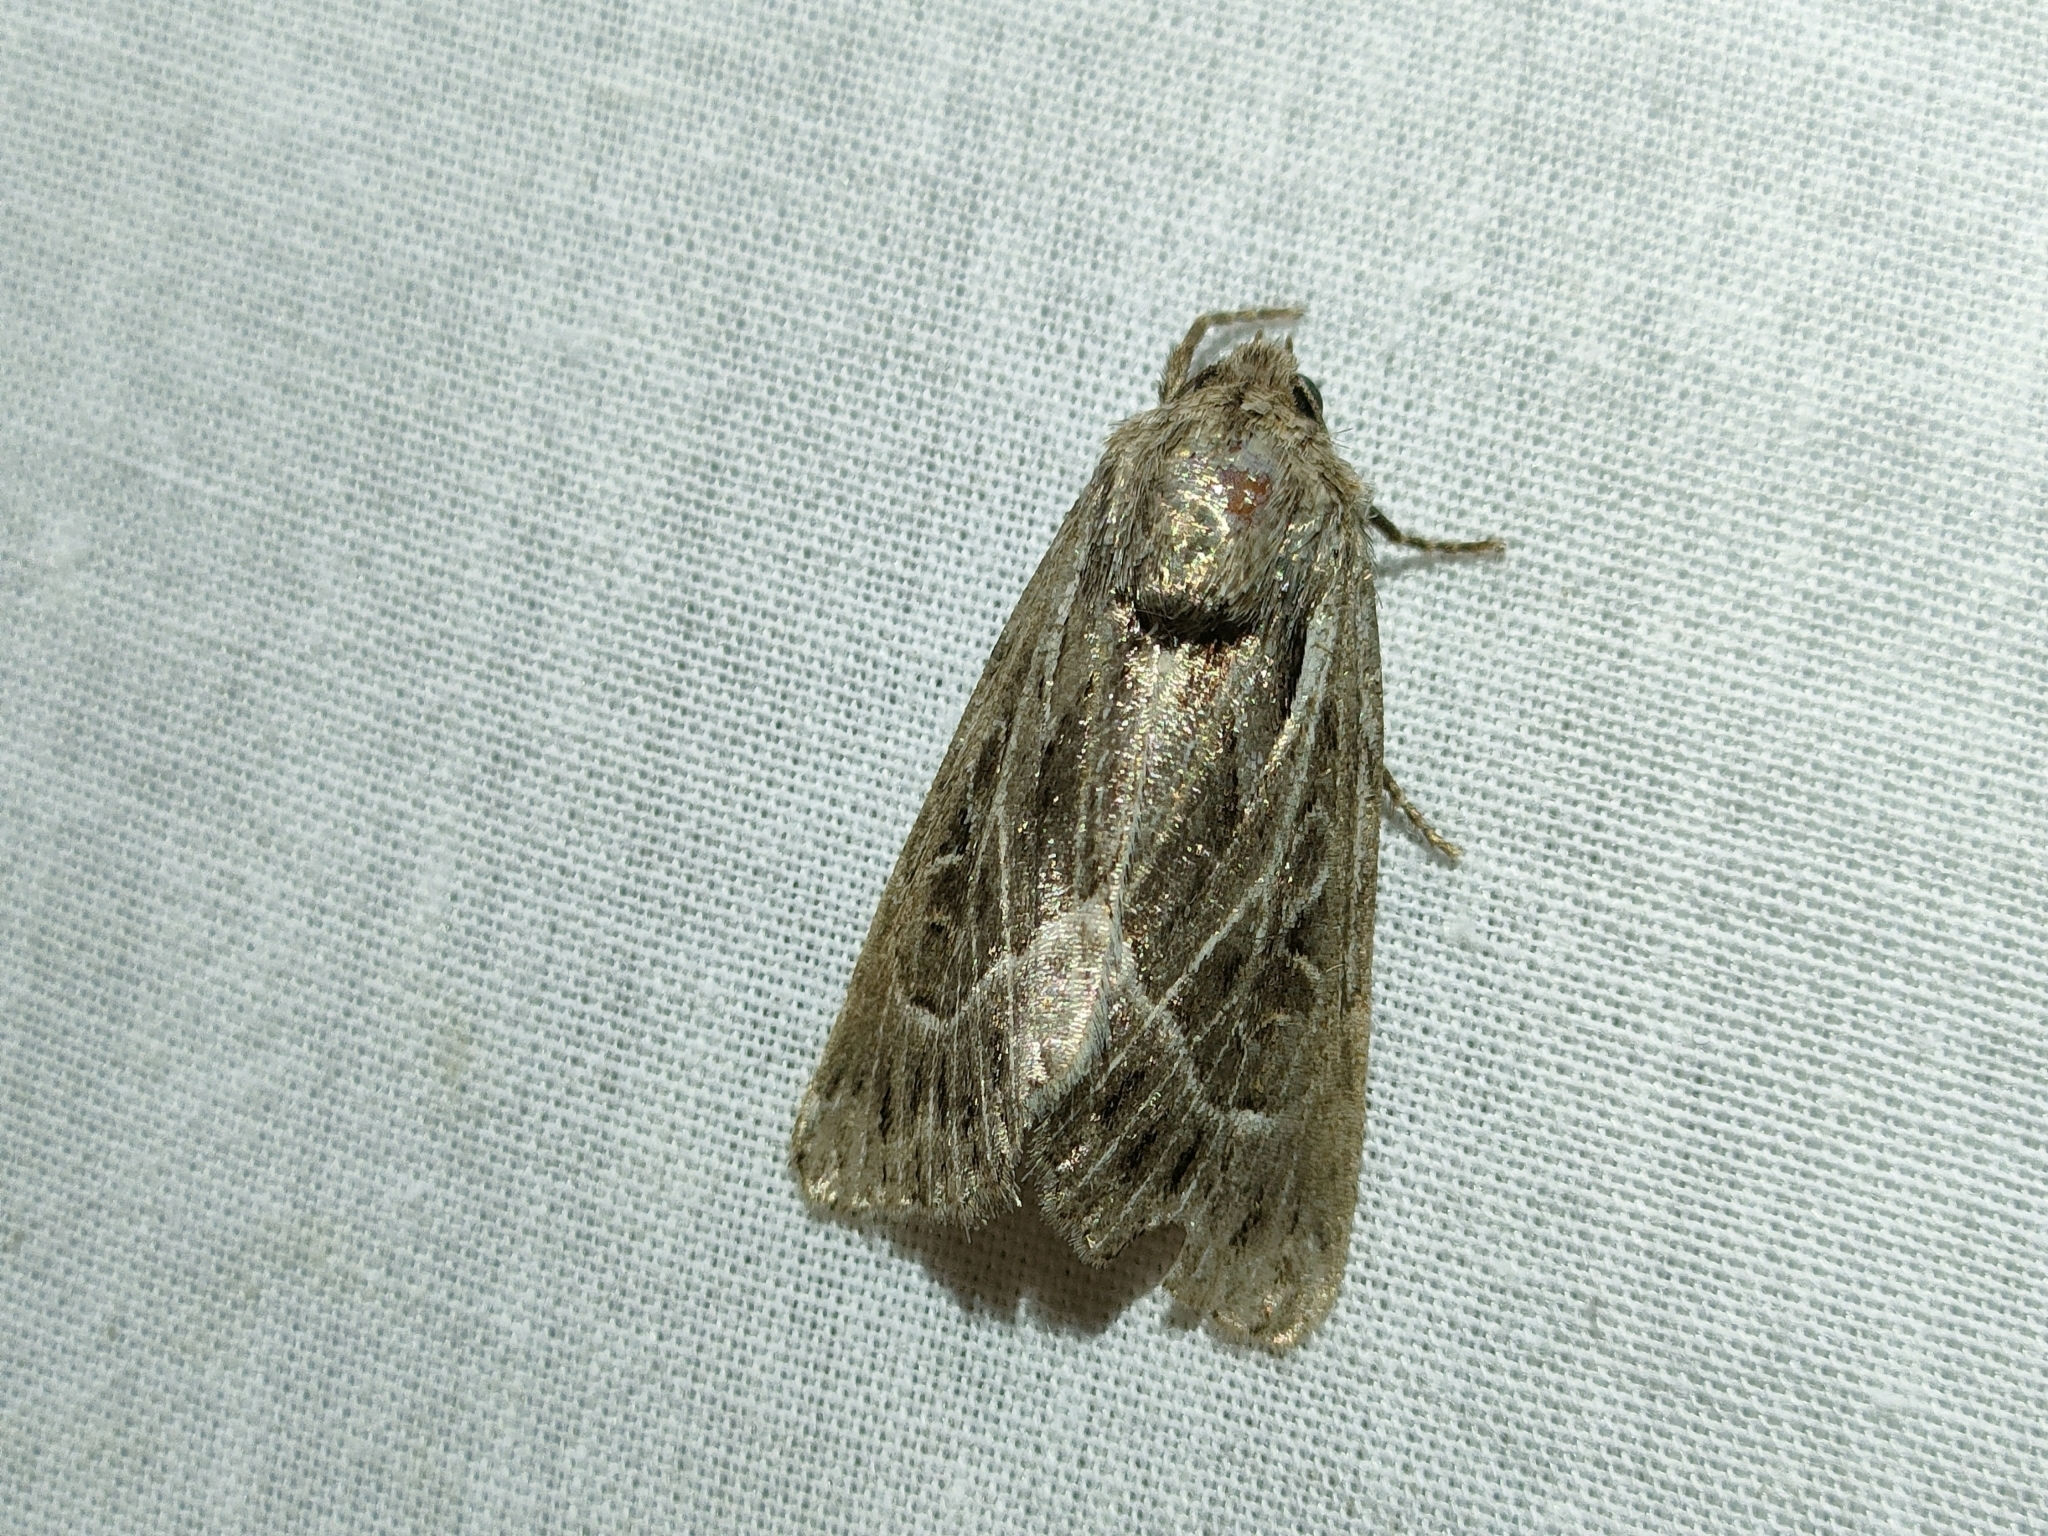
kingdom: Animalia
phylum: Arthropoda
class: Insecta
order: Lepidoptera
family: Noctuidae
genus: Thalpophila
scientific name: Thalpophila vitalba
